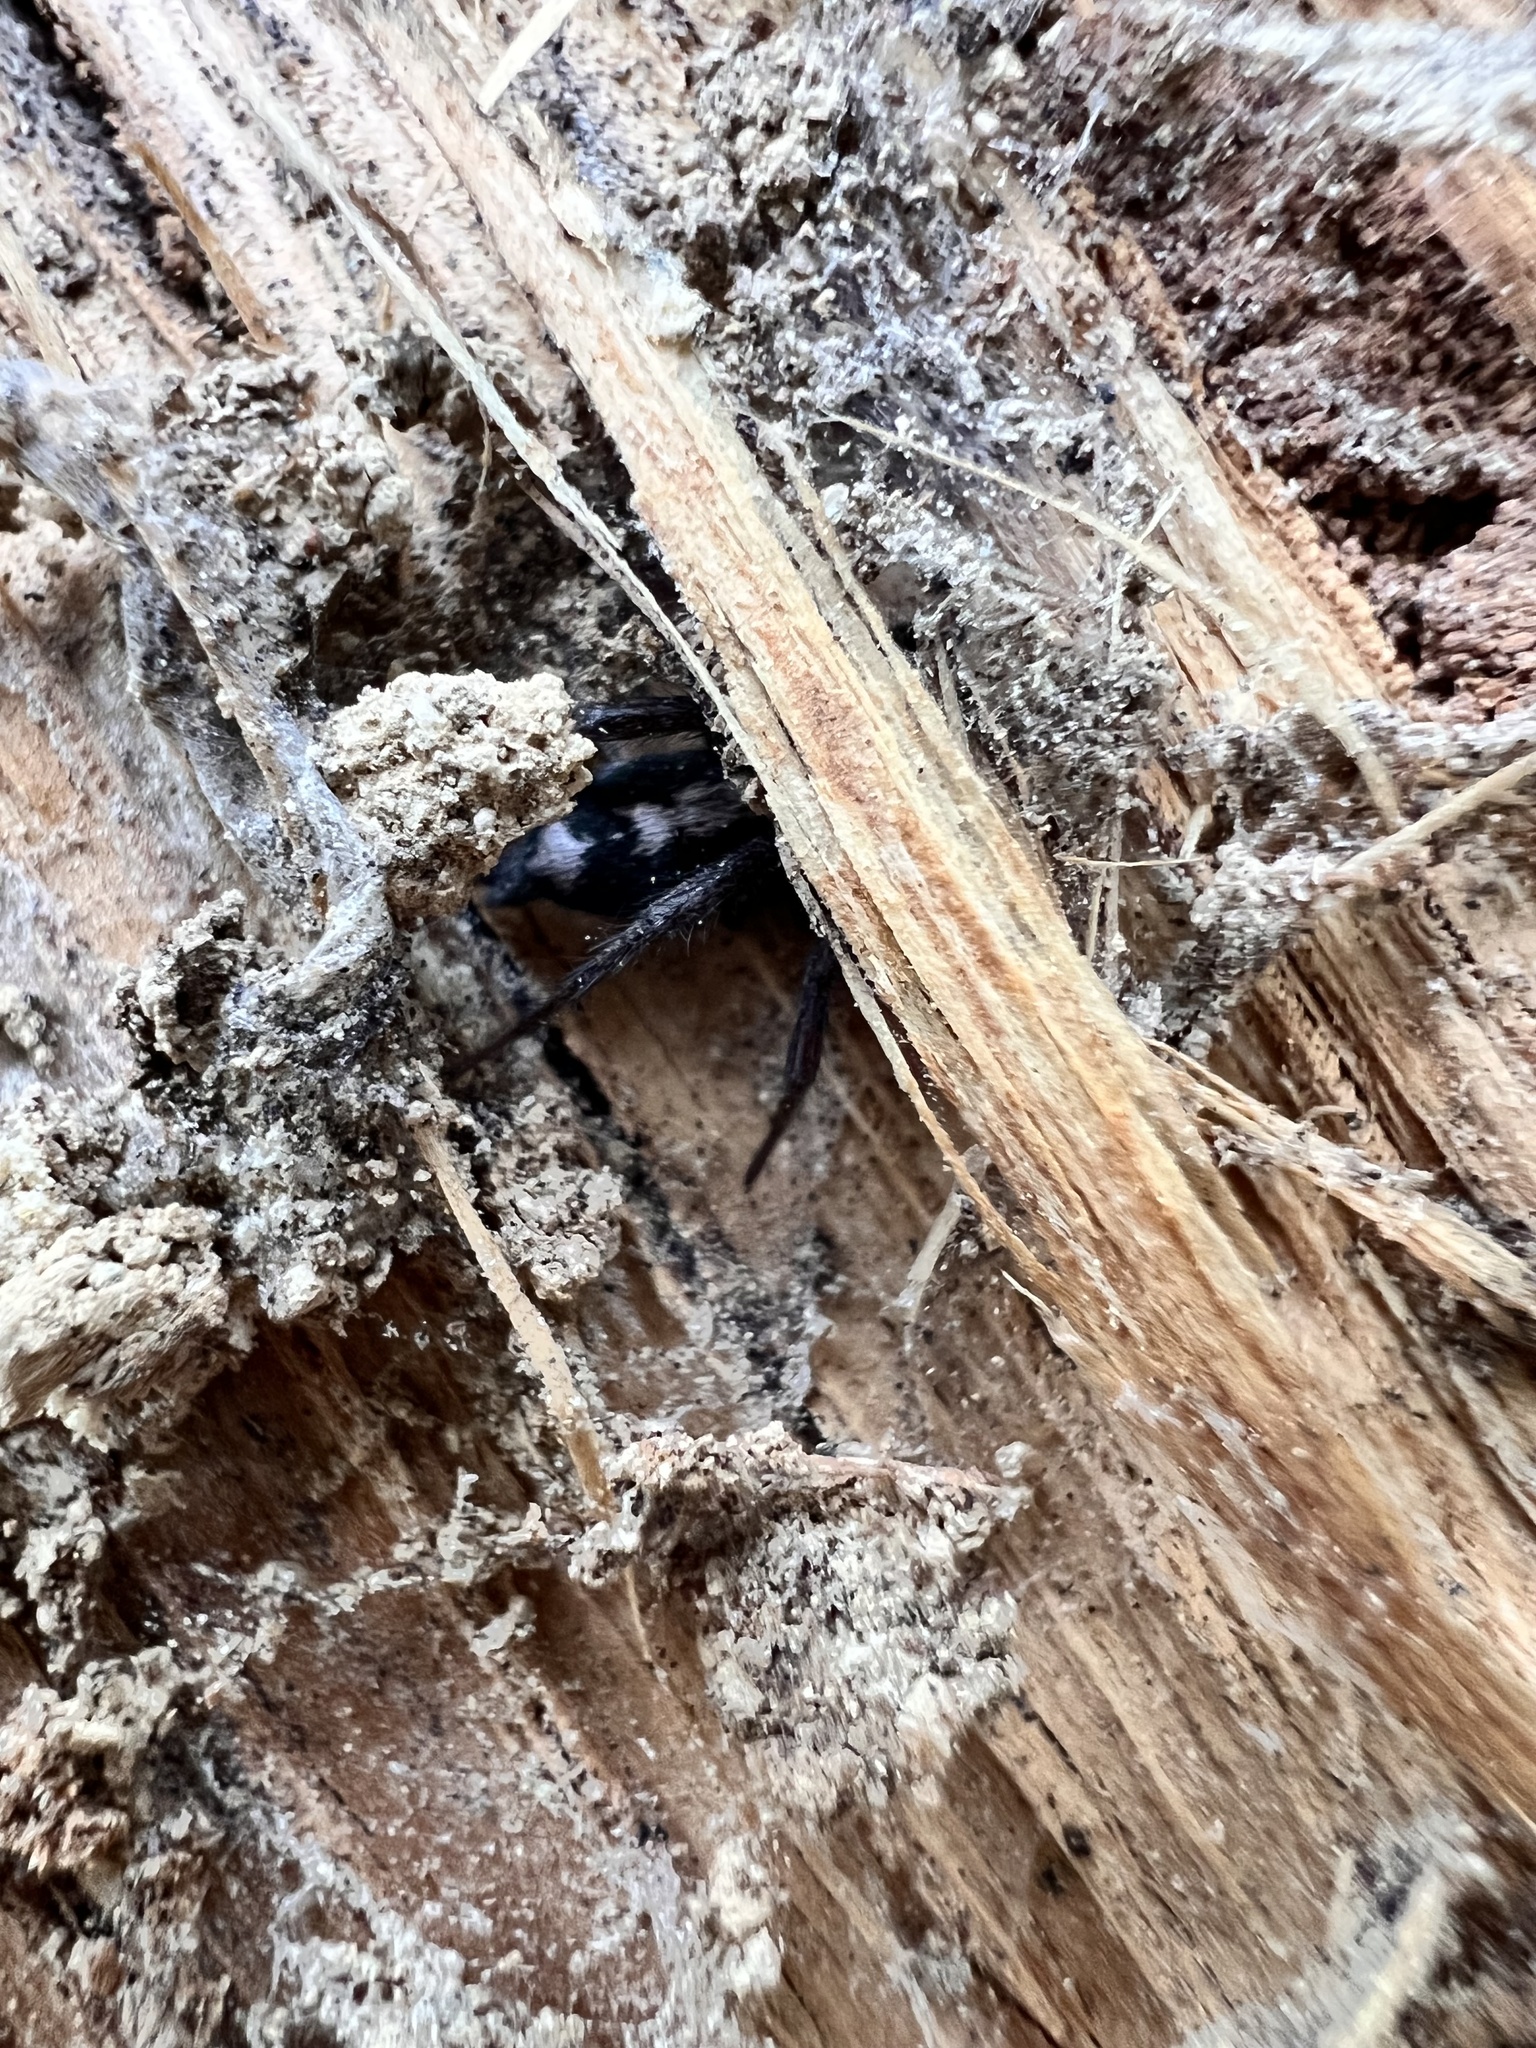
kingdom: Animalia
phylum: Arthropoda
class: Arachnida
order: Araneae
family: Gnaphosidae
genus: Herpyllus
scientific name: Herpyllus ecclesiasticus
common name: Eastern parson spider
